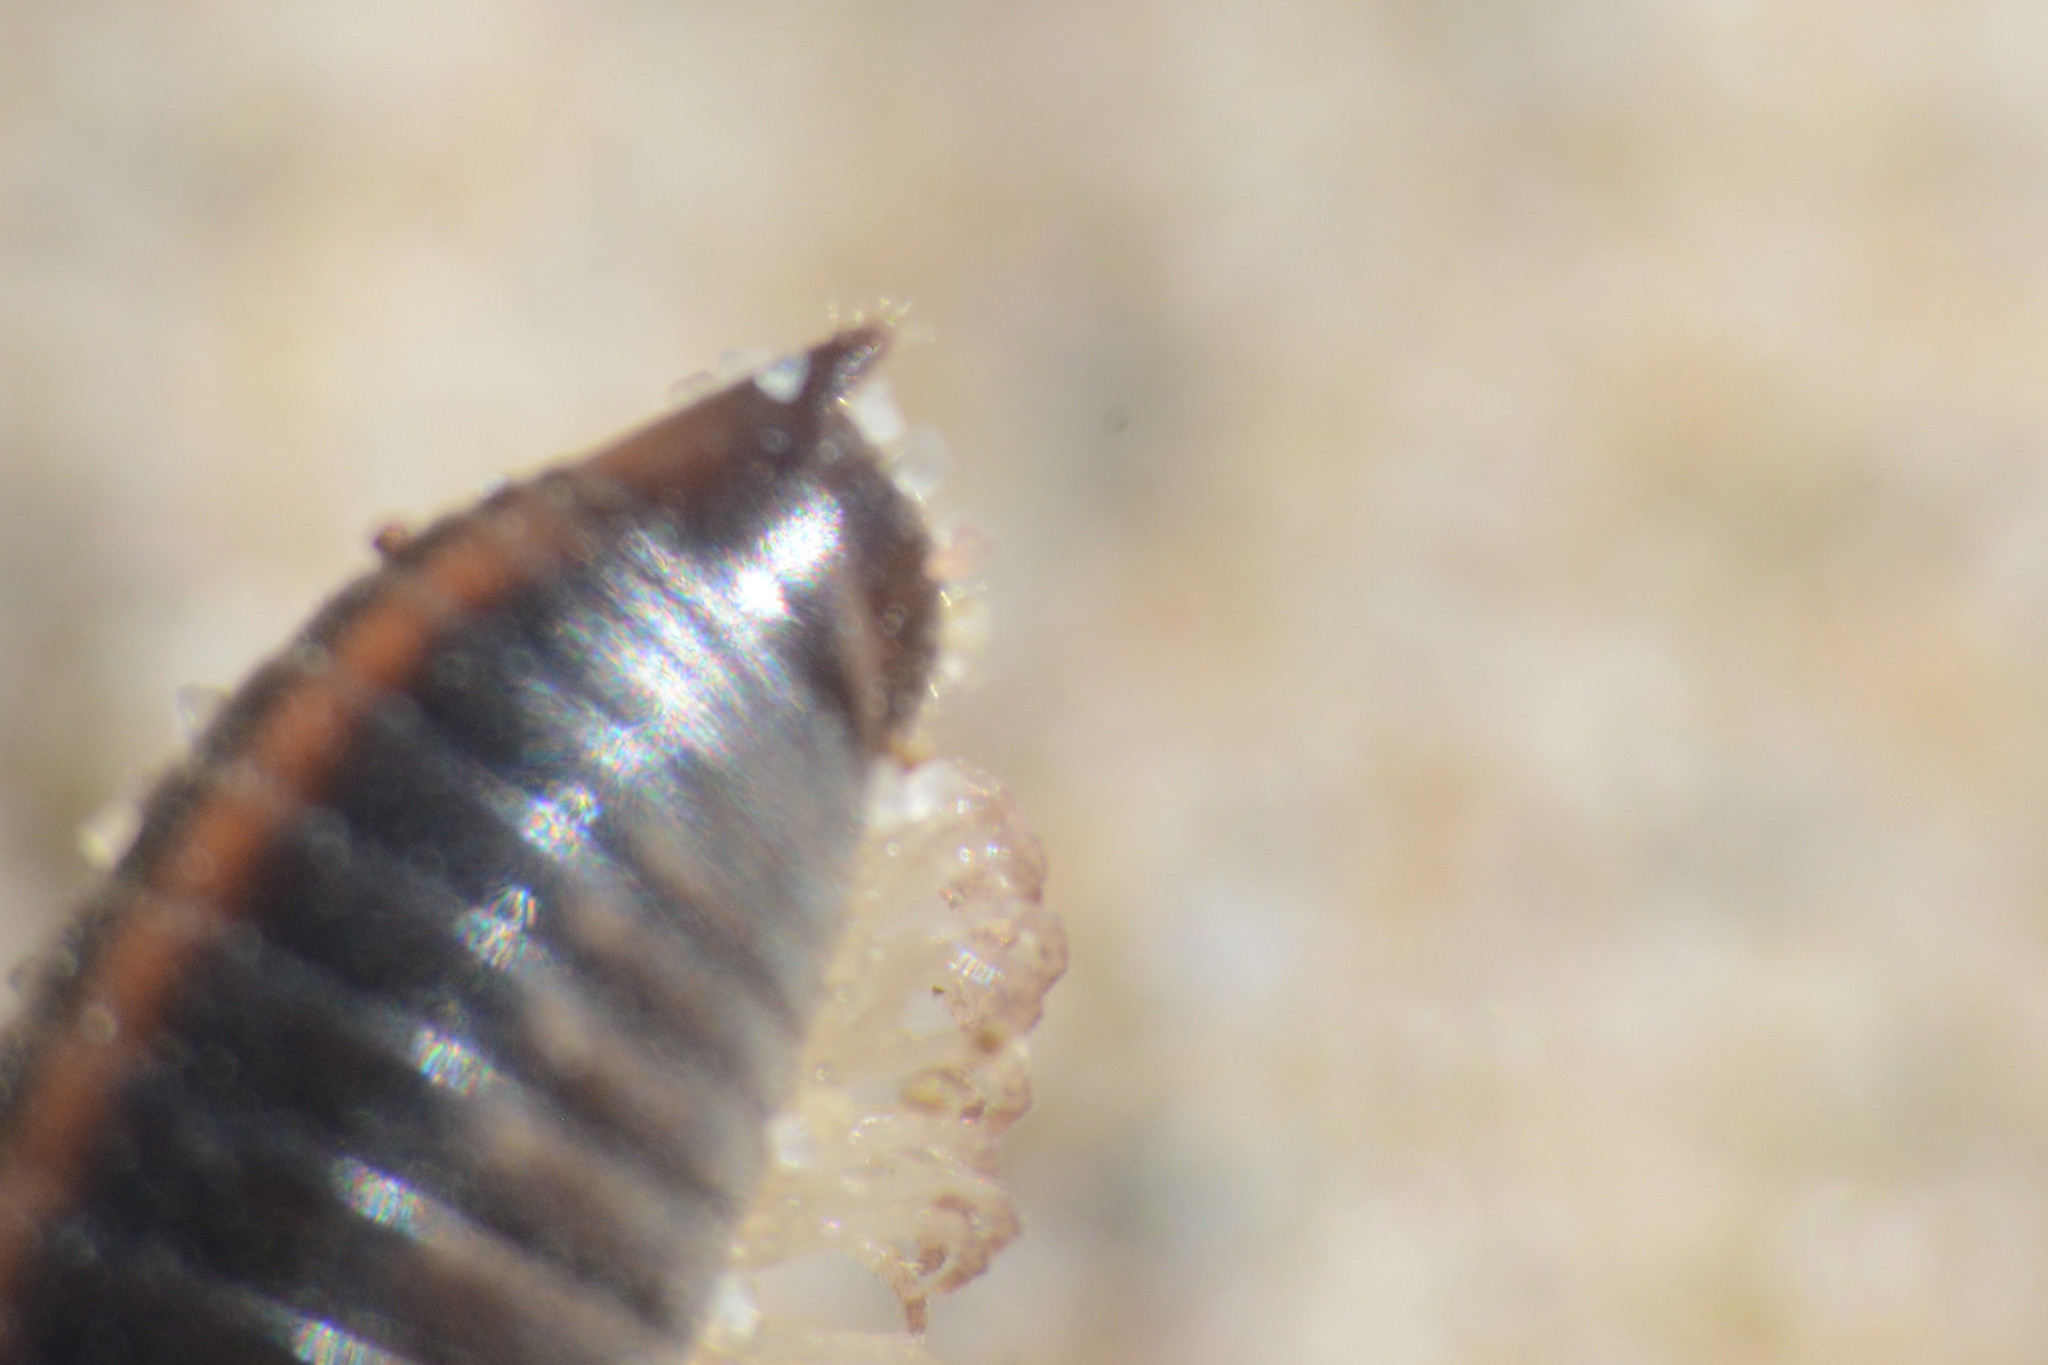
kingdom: Animalia
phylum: Arthropoda
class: Diplopoda
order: Julida
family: Julidae
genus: Ommatoiulus
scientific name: Ommatoiulus sabulosus
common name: Striped millipede
